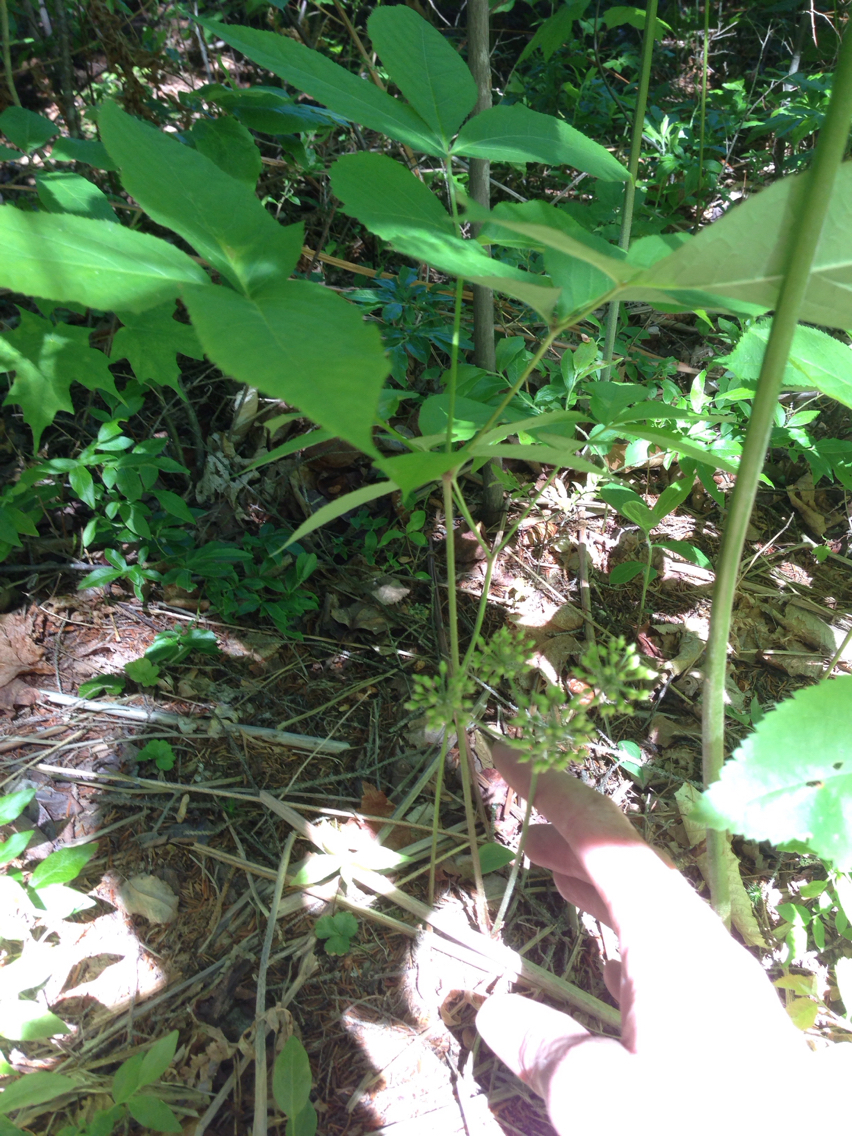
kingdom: Plantae
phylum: Tracheophyta
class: Magnoliopsida
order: Apiales
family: Araliaceae
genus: Aralia
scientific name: Aralia nudicaulis
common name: Wild sarsaparilla
